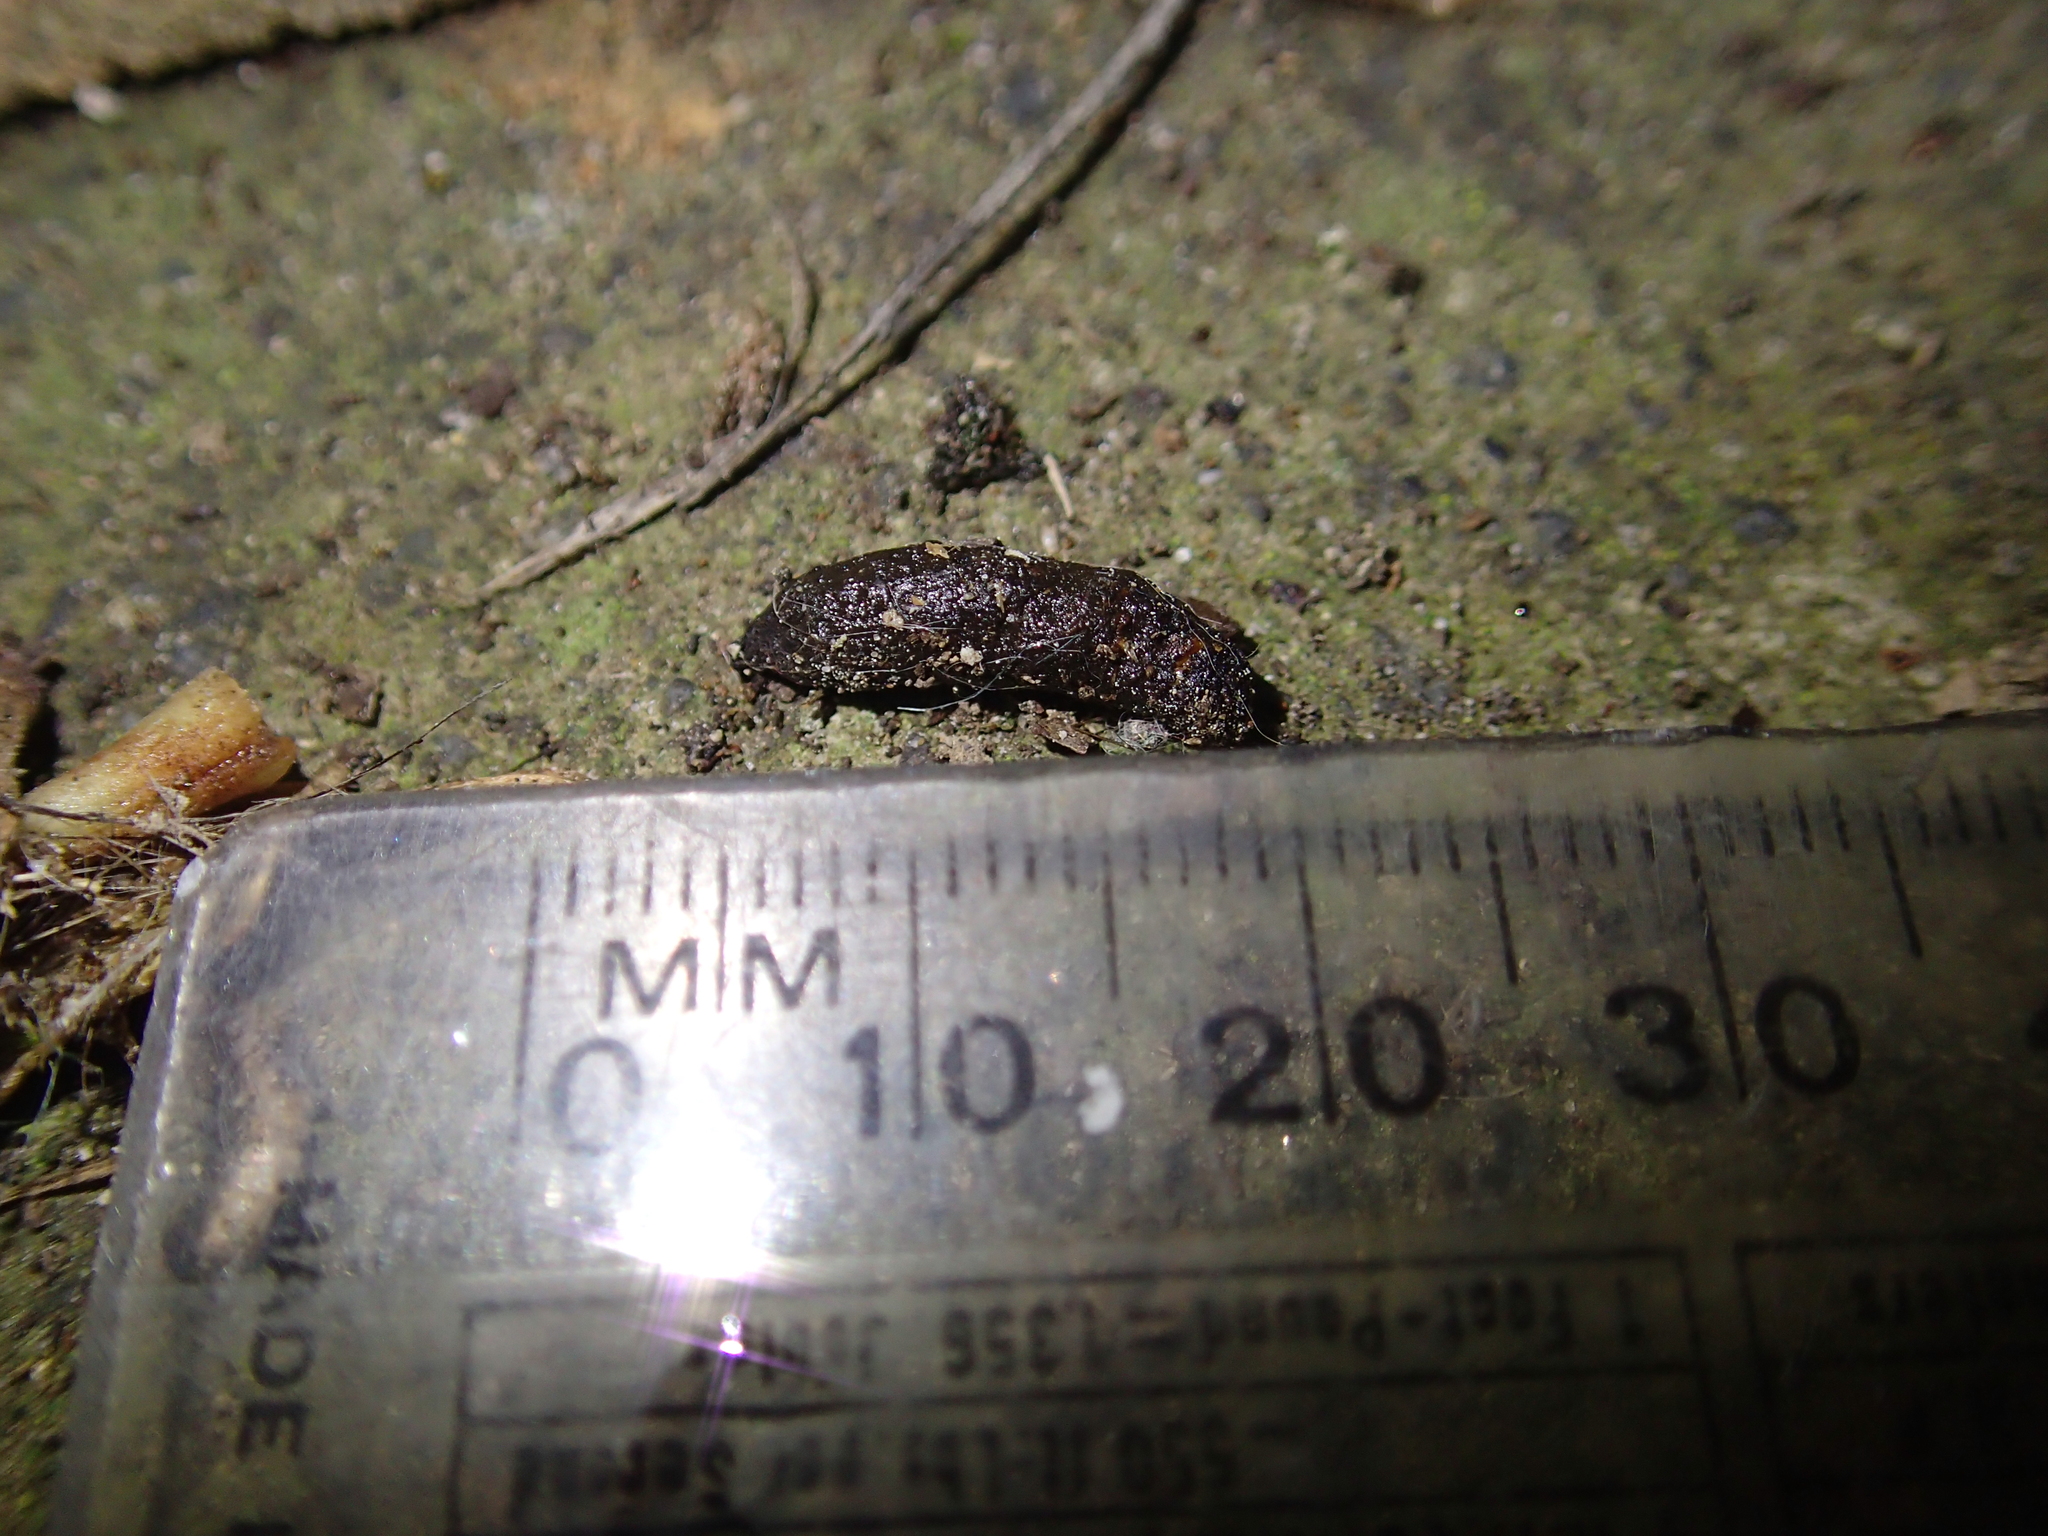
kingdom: Animalia
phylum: Chordata
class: Mammalia
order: Rodentia
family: Muridae
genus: Rattus
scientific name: Rattus rattus
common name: Black rat
